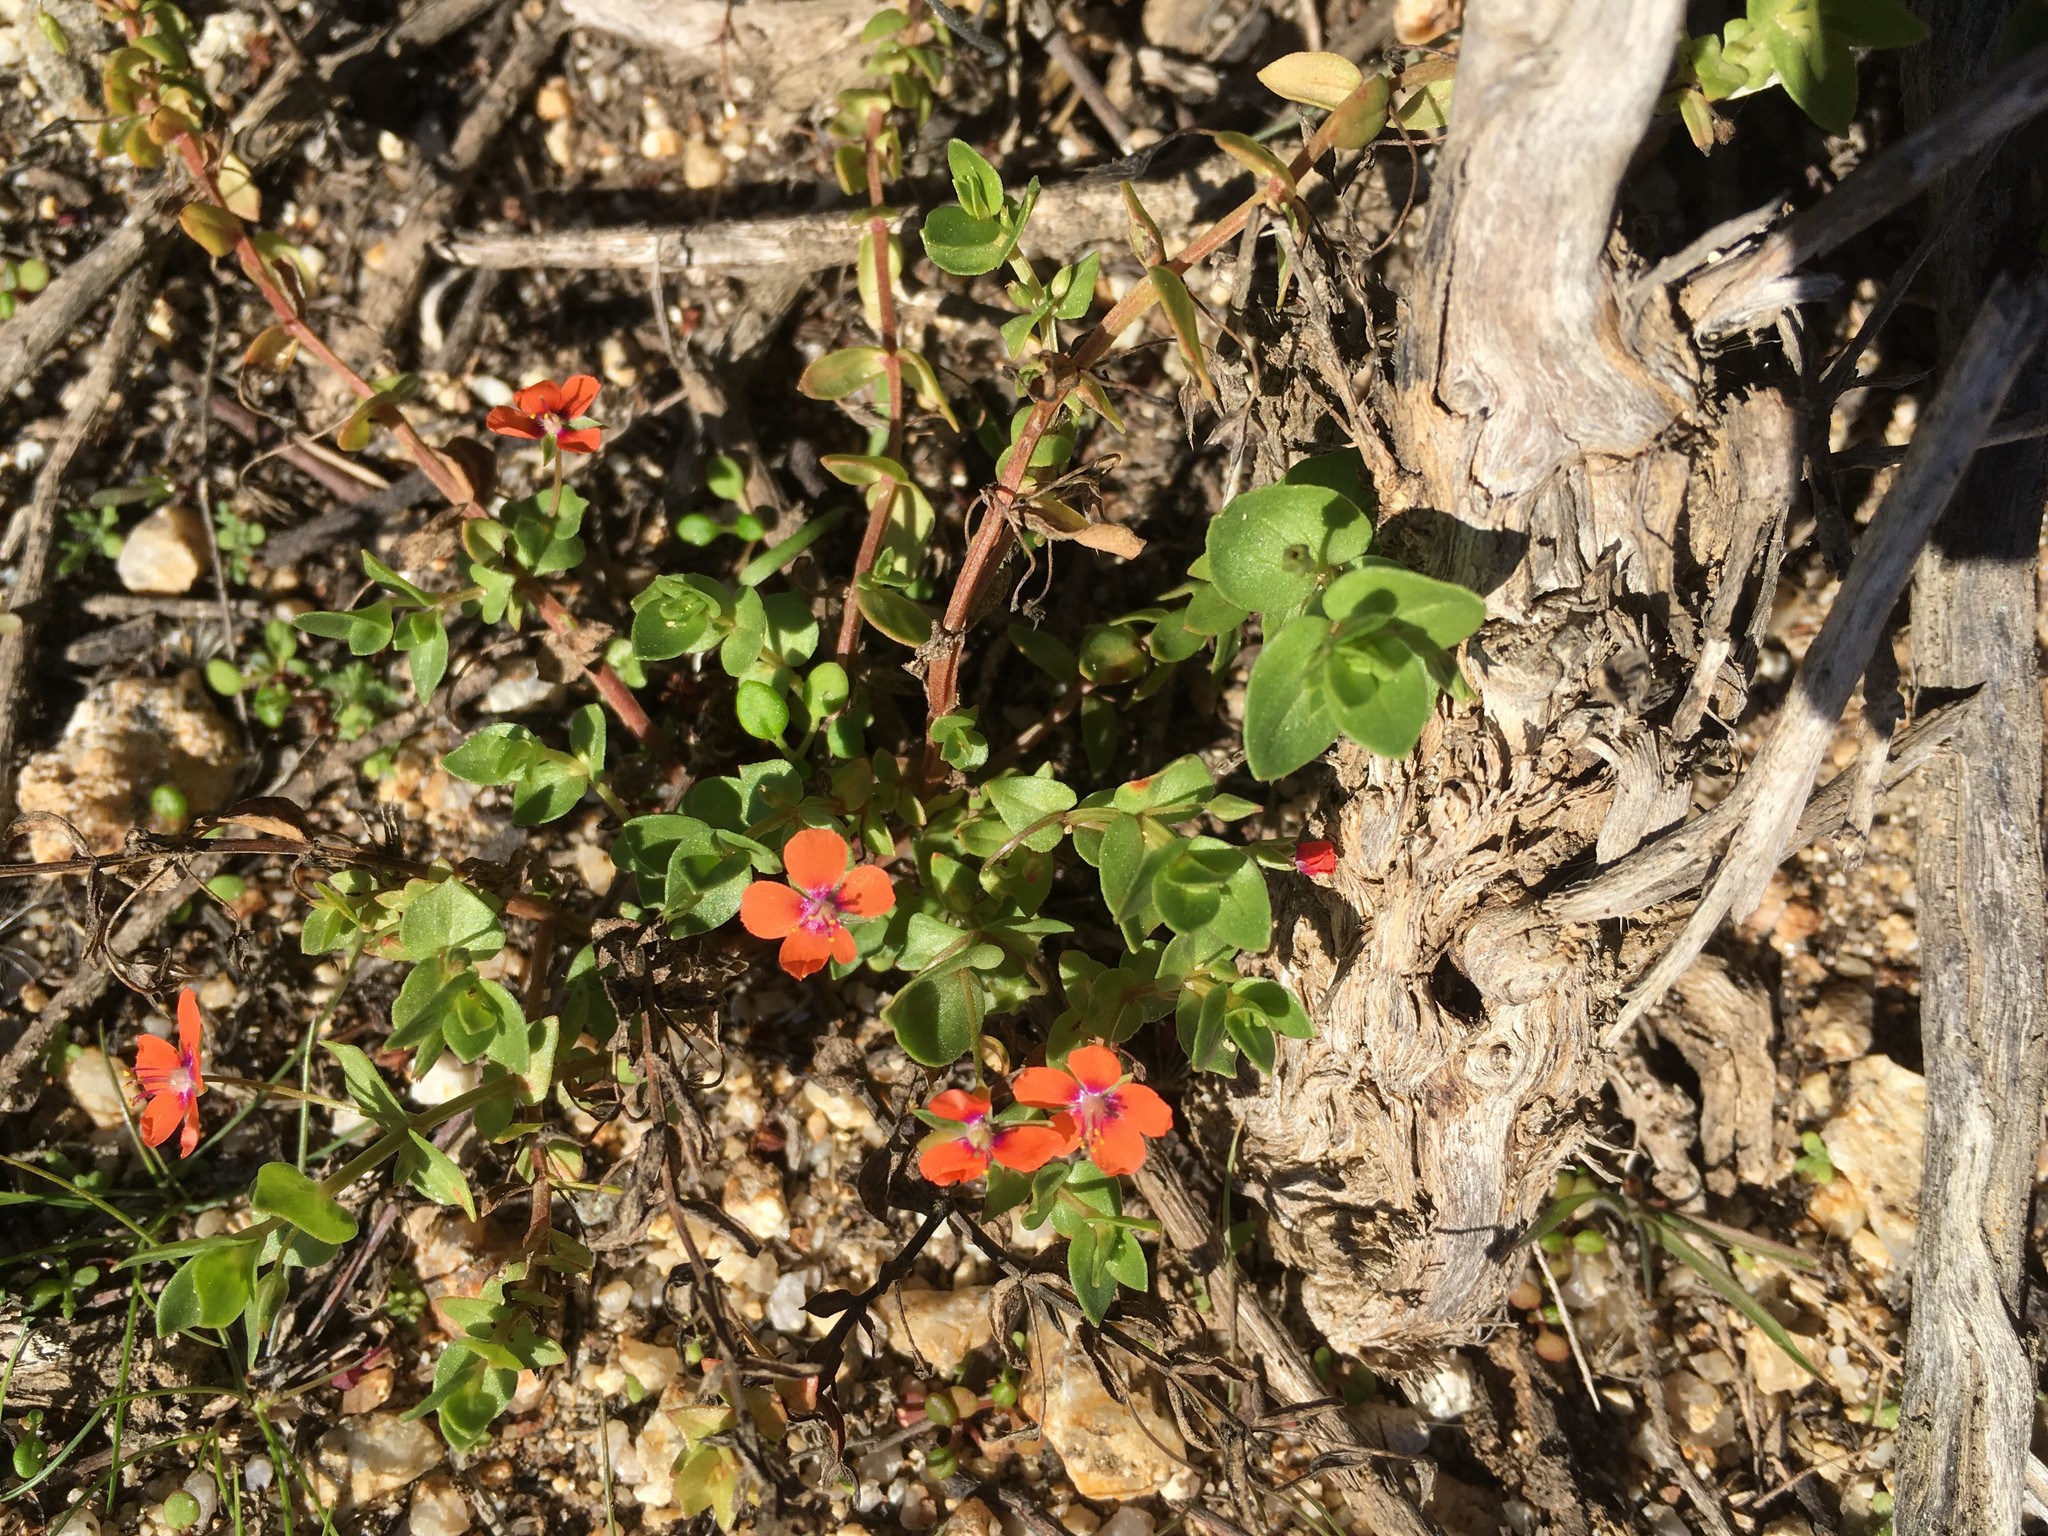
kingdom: Plantae
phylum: Tracheophyta
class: Magnoliopsida
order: Ericales
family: Primulaceae
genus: Lysimachia
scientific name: Lysimachia arvensis
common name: Scarlet pimpernel
